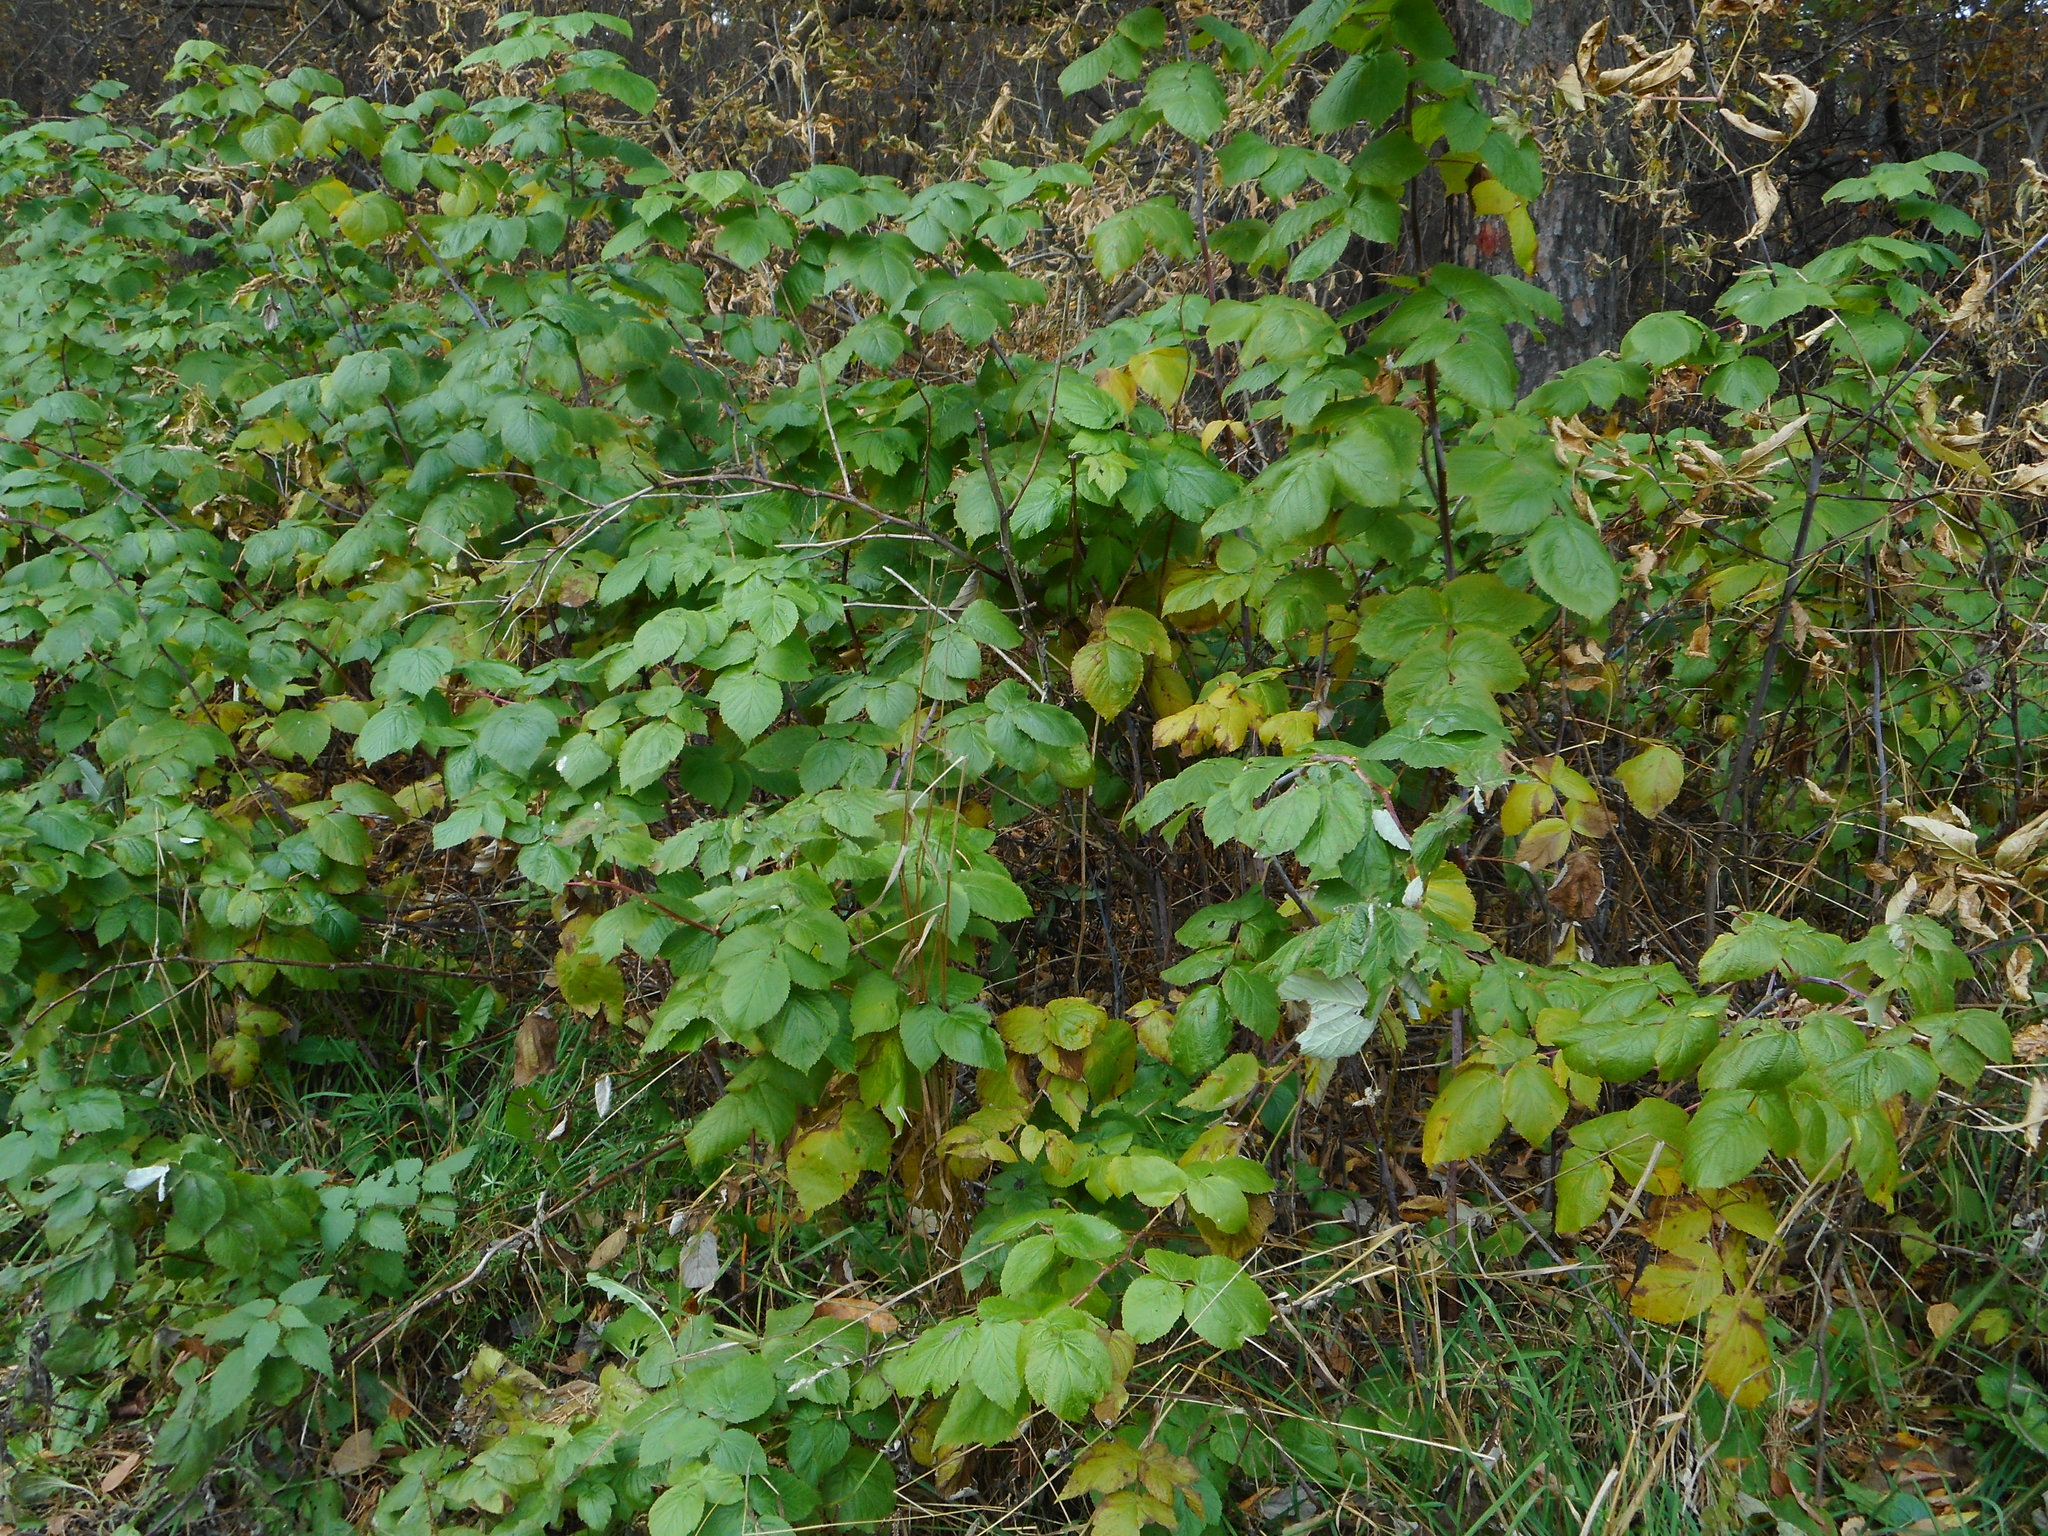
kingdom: Plantae
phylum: Tracheophyta
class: Magnoliopsida
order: Rosales
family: Rosaceae
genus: Rubus
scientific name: Rubus idaeus
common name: Raspberry
